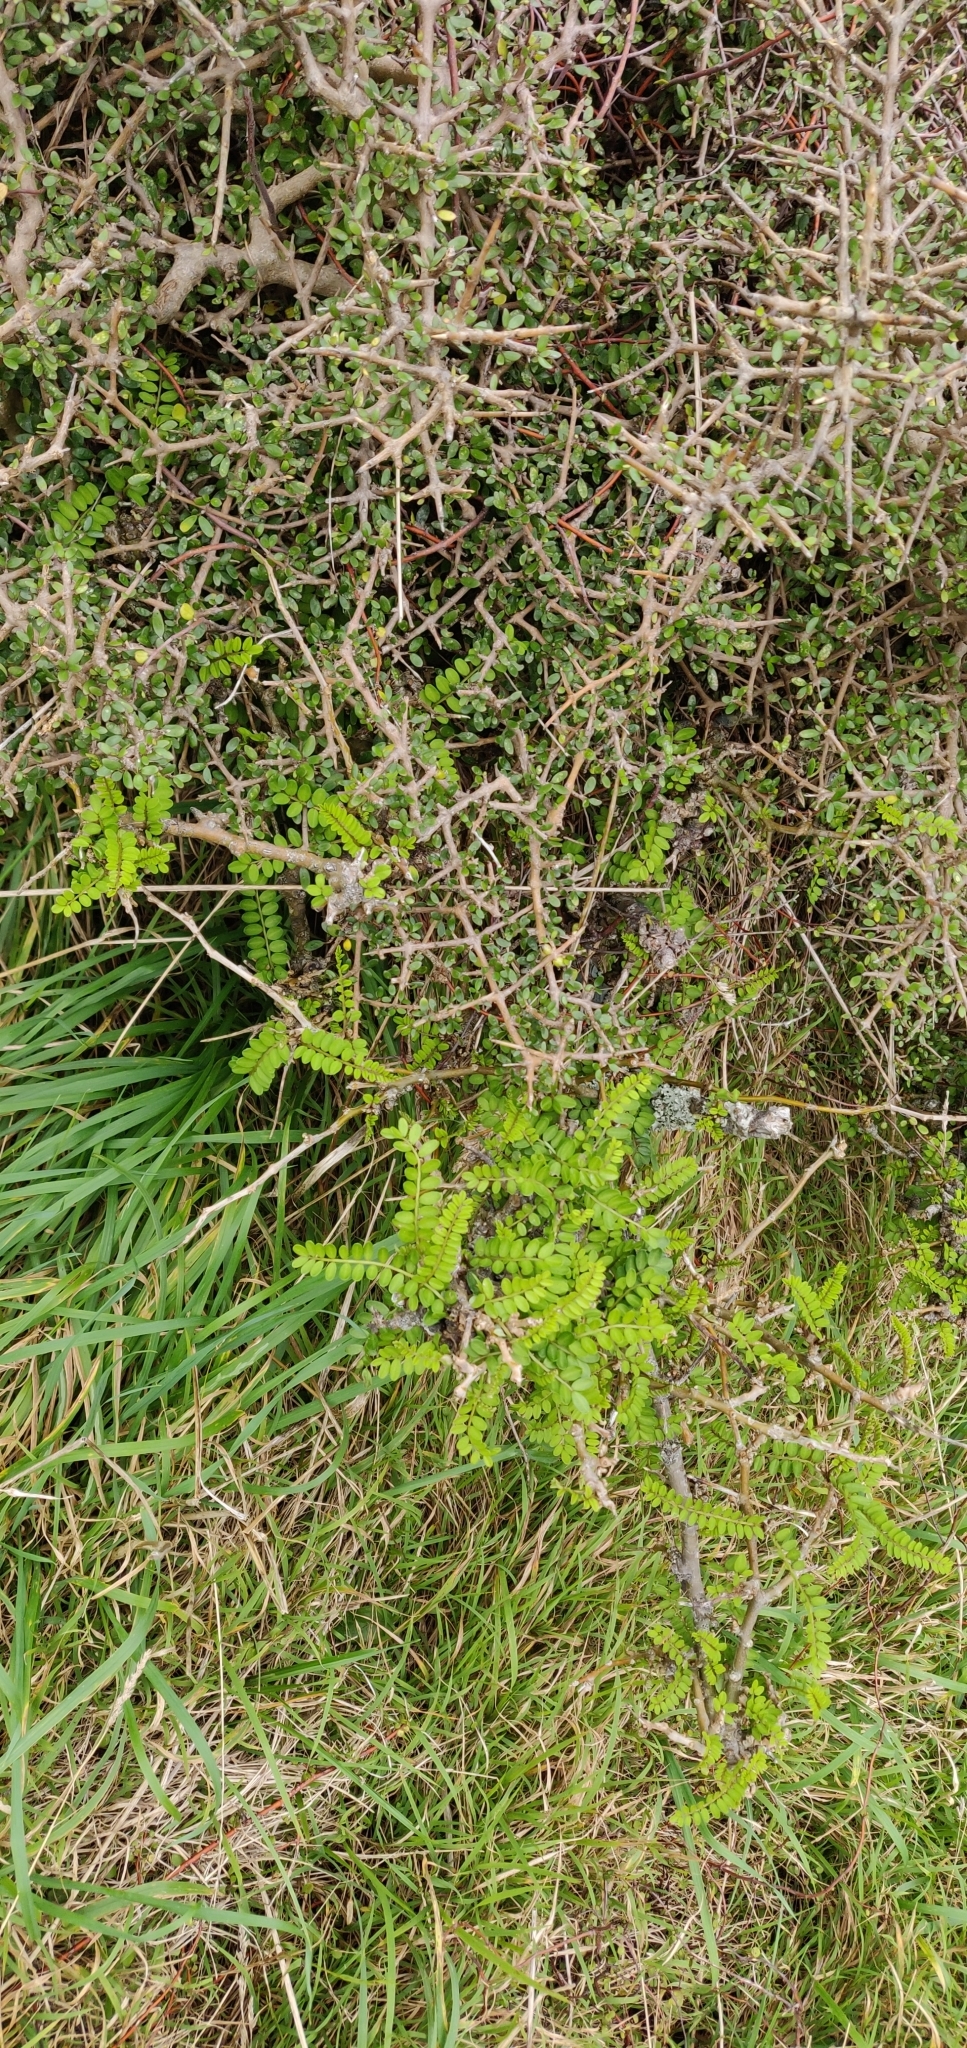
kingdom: Plantae
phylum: Tracheophyta
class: Magnoliopsida
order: Fabales
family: Fabaceae
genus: Sophora
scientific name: Sophora molloyi
